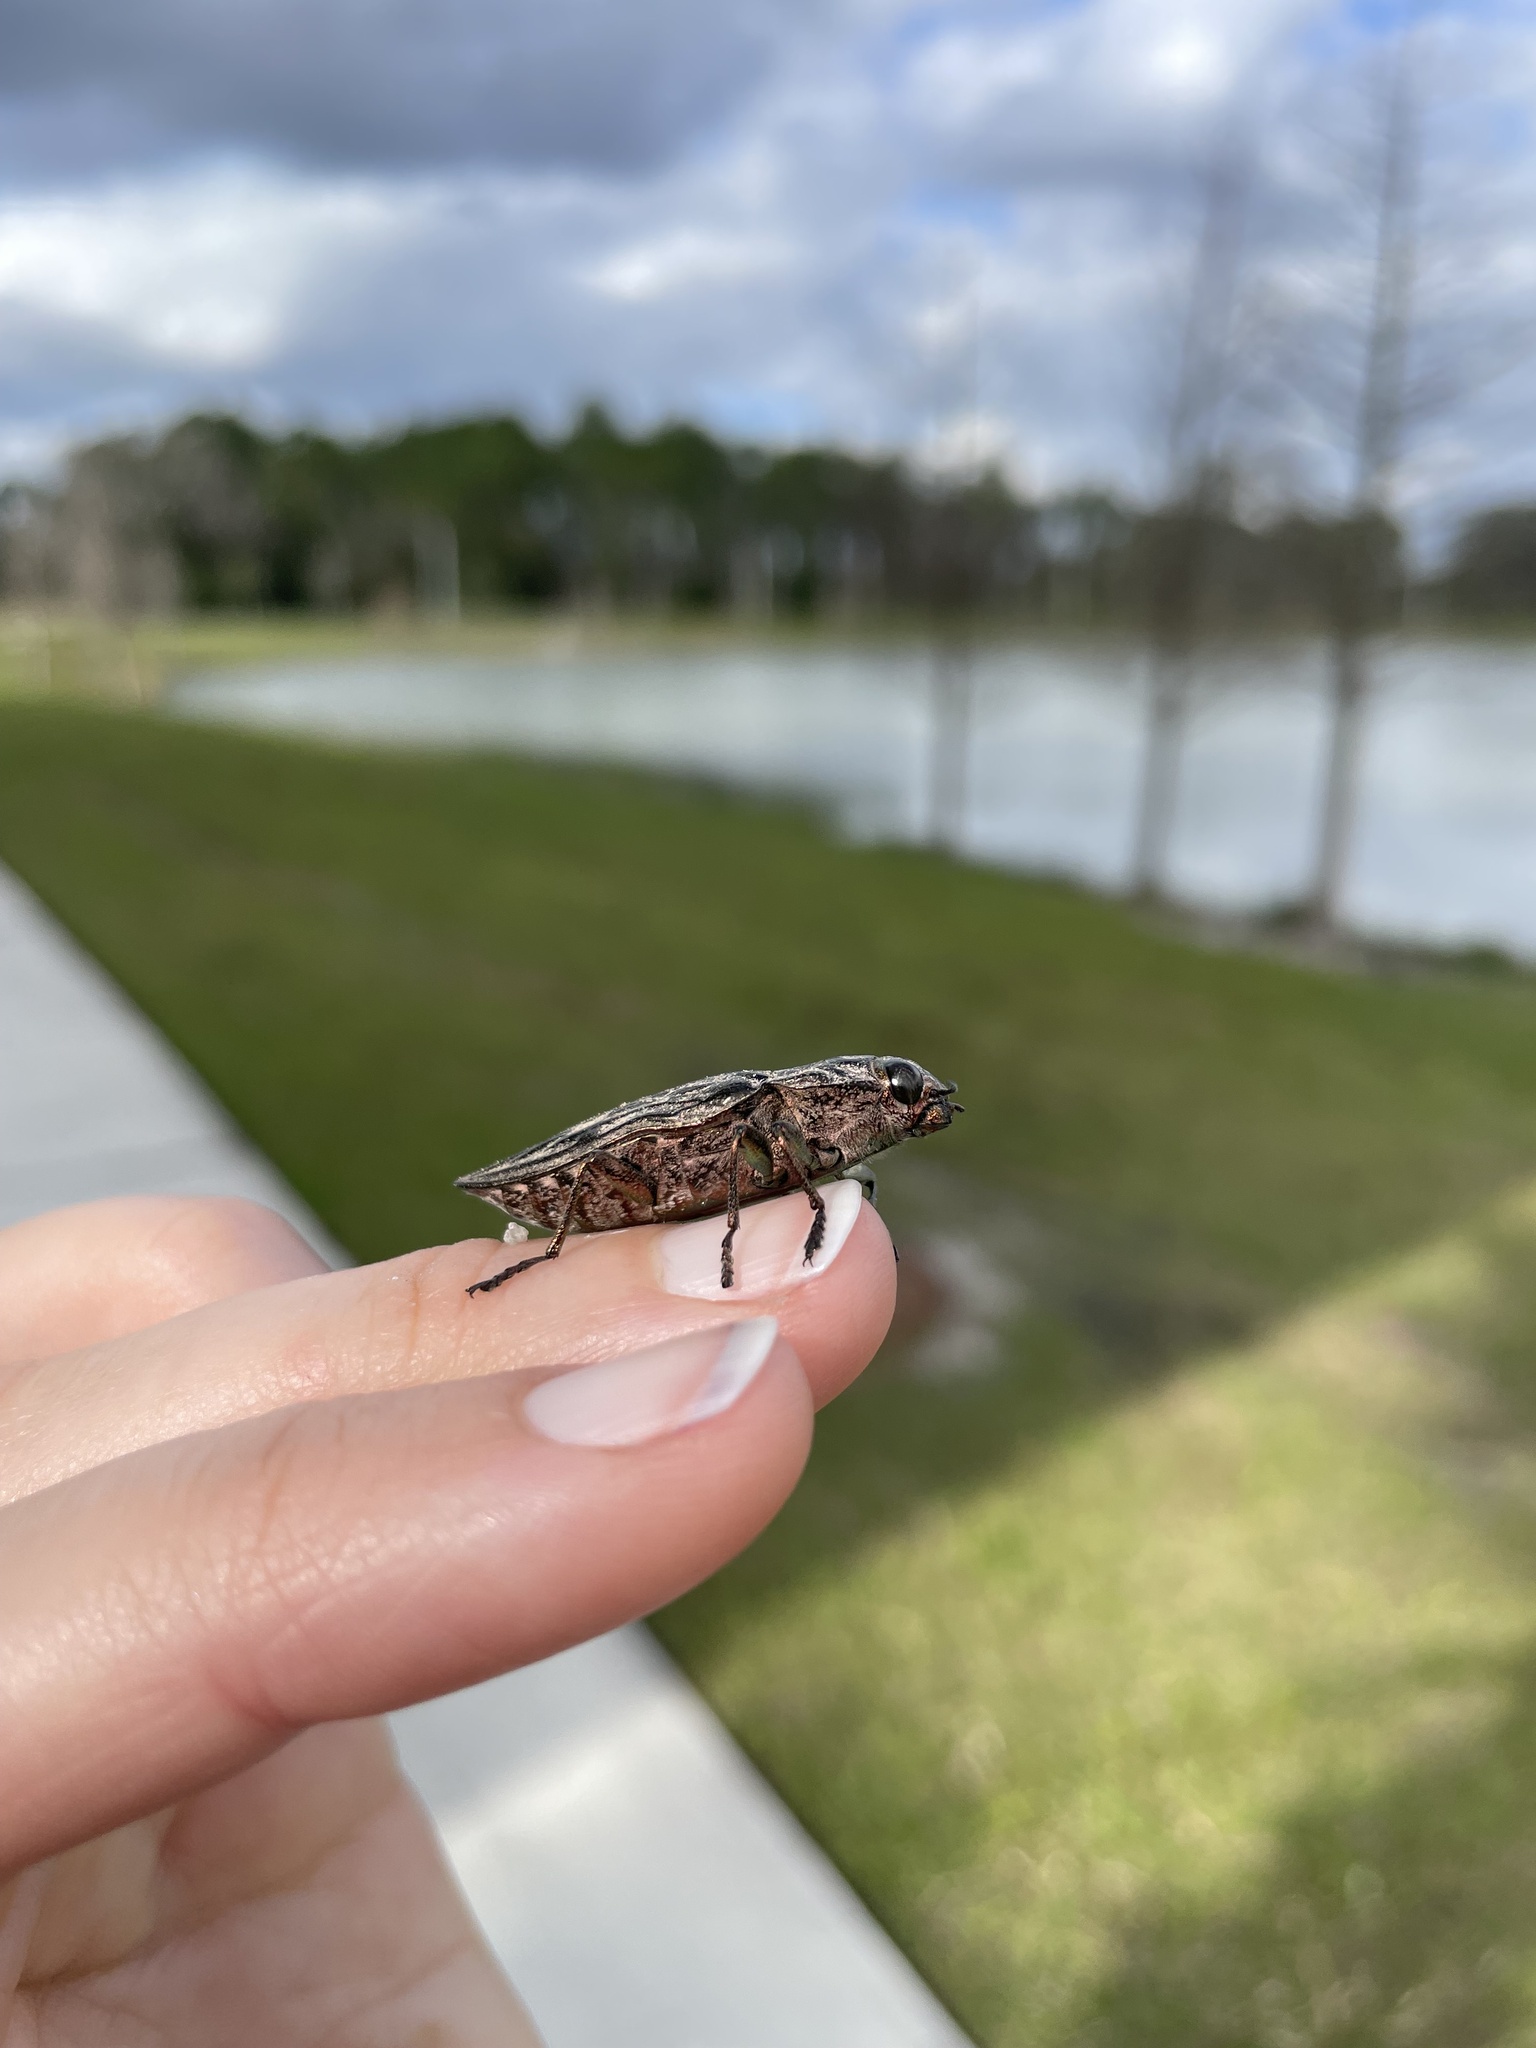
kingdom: Animalia
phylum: Arthropoda
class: Insecta
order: Coleoptera
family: Buprestidae
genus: Chalcophora
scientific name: Chalcophora virginiensis
